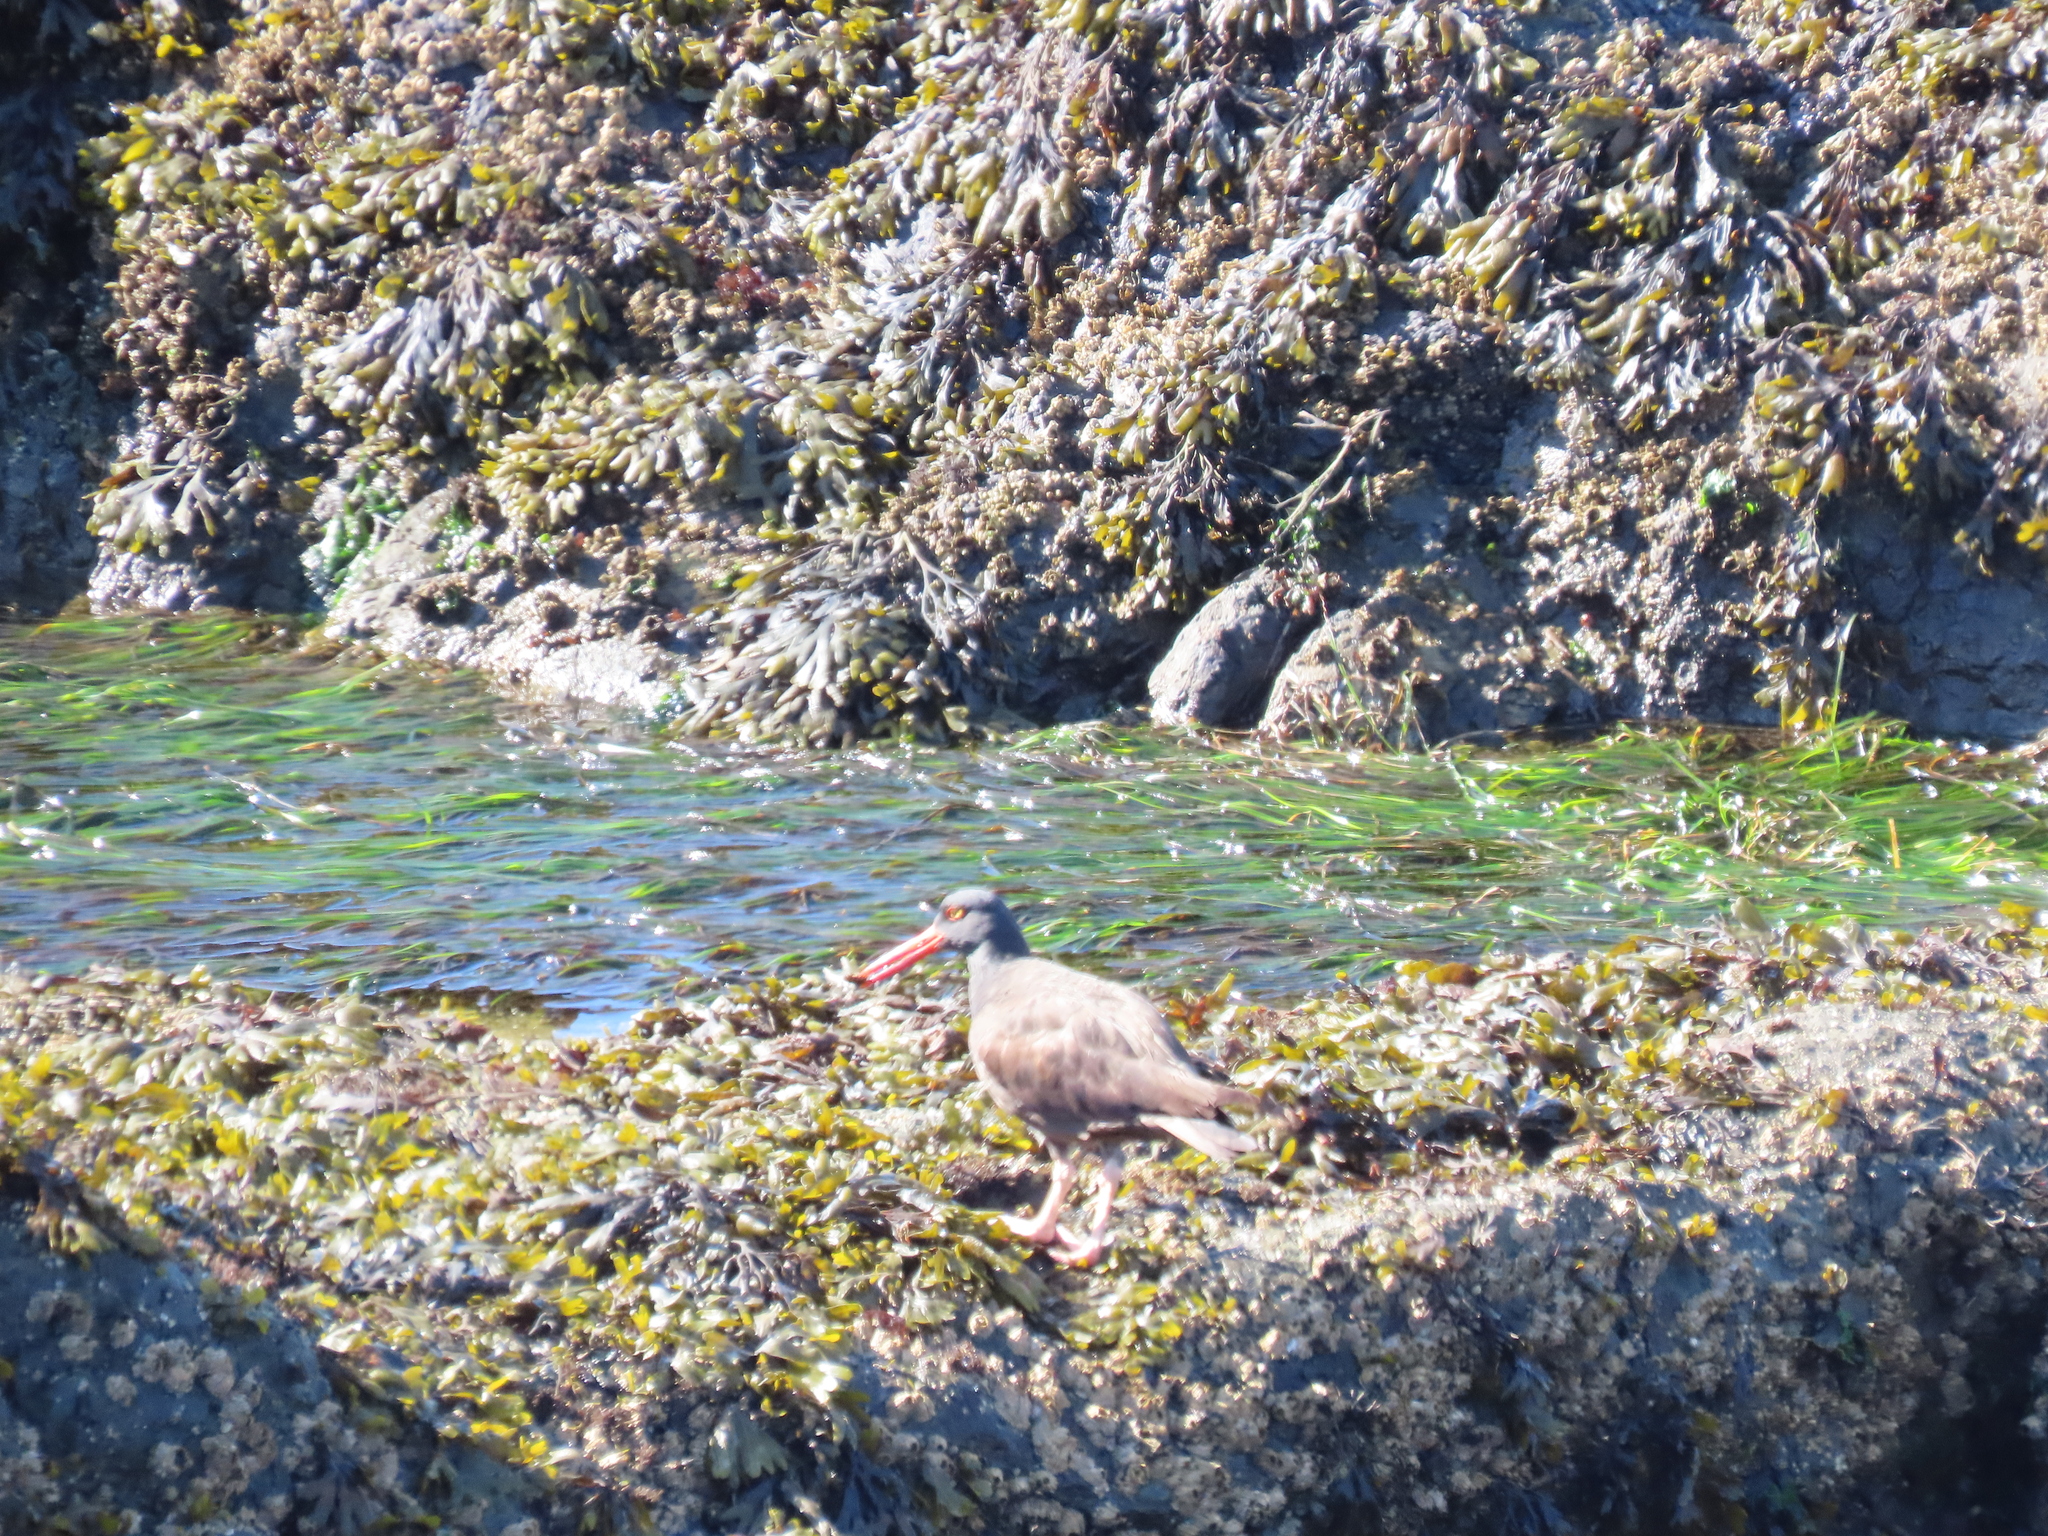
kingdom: Animalia
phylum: Chordata
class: Aves
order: Charadriiformes
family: Haematopodidae
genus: Haematopus
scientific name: Haematopus bachmani
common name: Black oystercatcher
